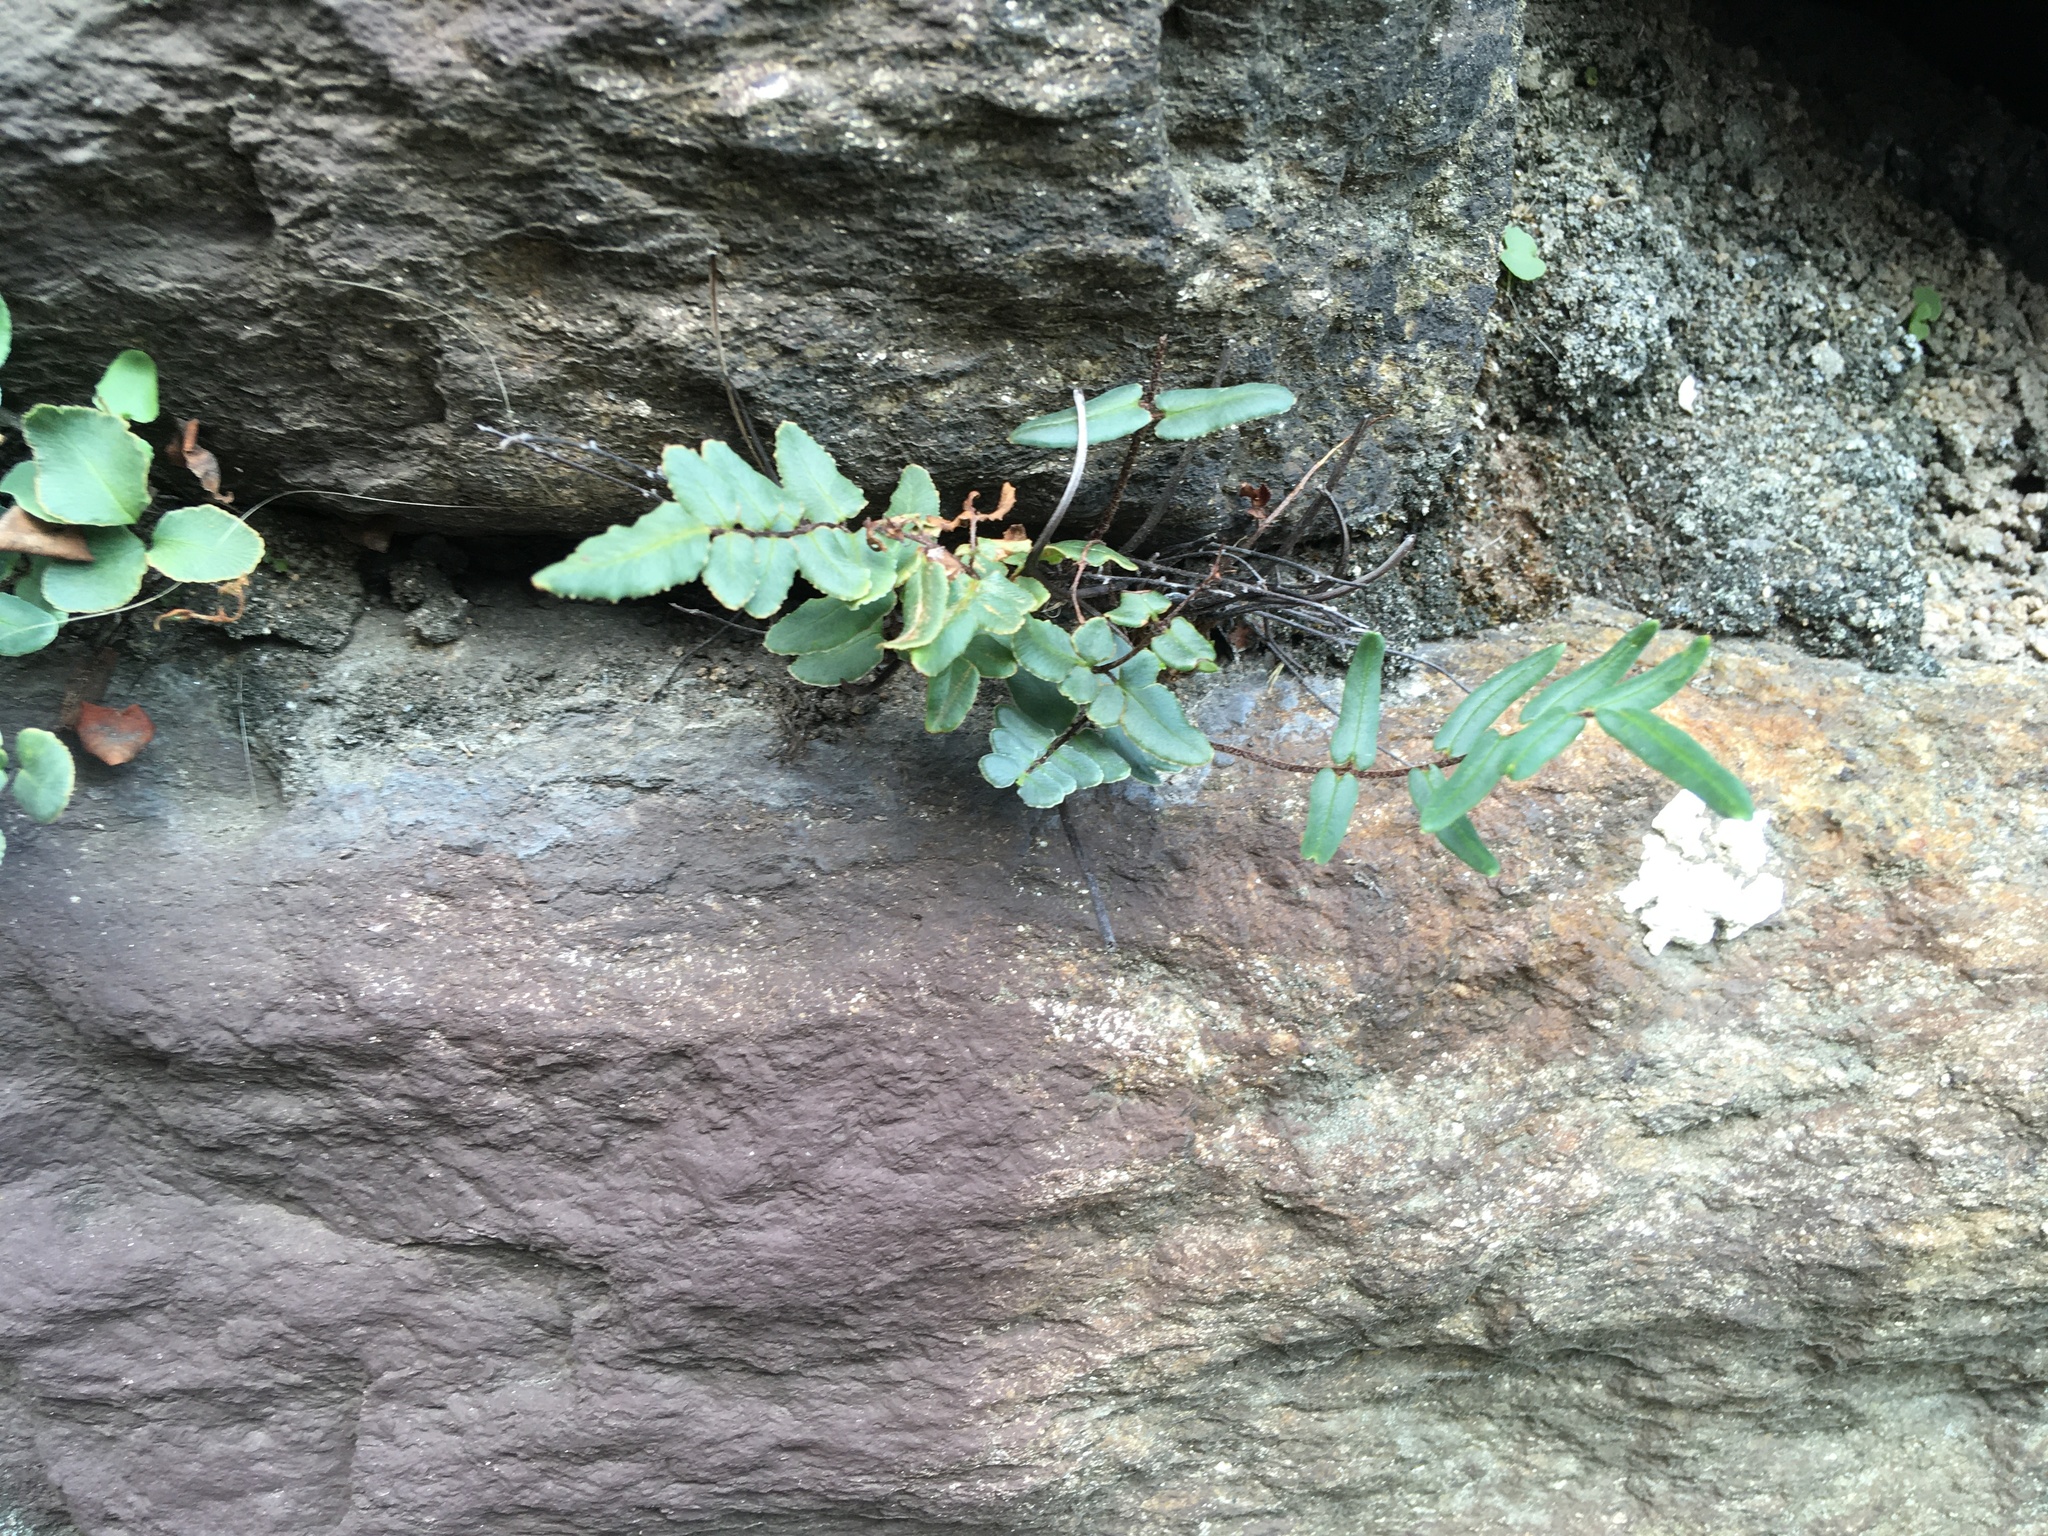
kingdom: Plantae
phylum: Tracheophyta
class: Polypodiopsida
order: Polypodiales
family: Pteridaceae
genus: Pellaea
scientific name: Pellaea atropurpurea
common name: Hairy cliffbrake
